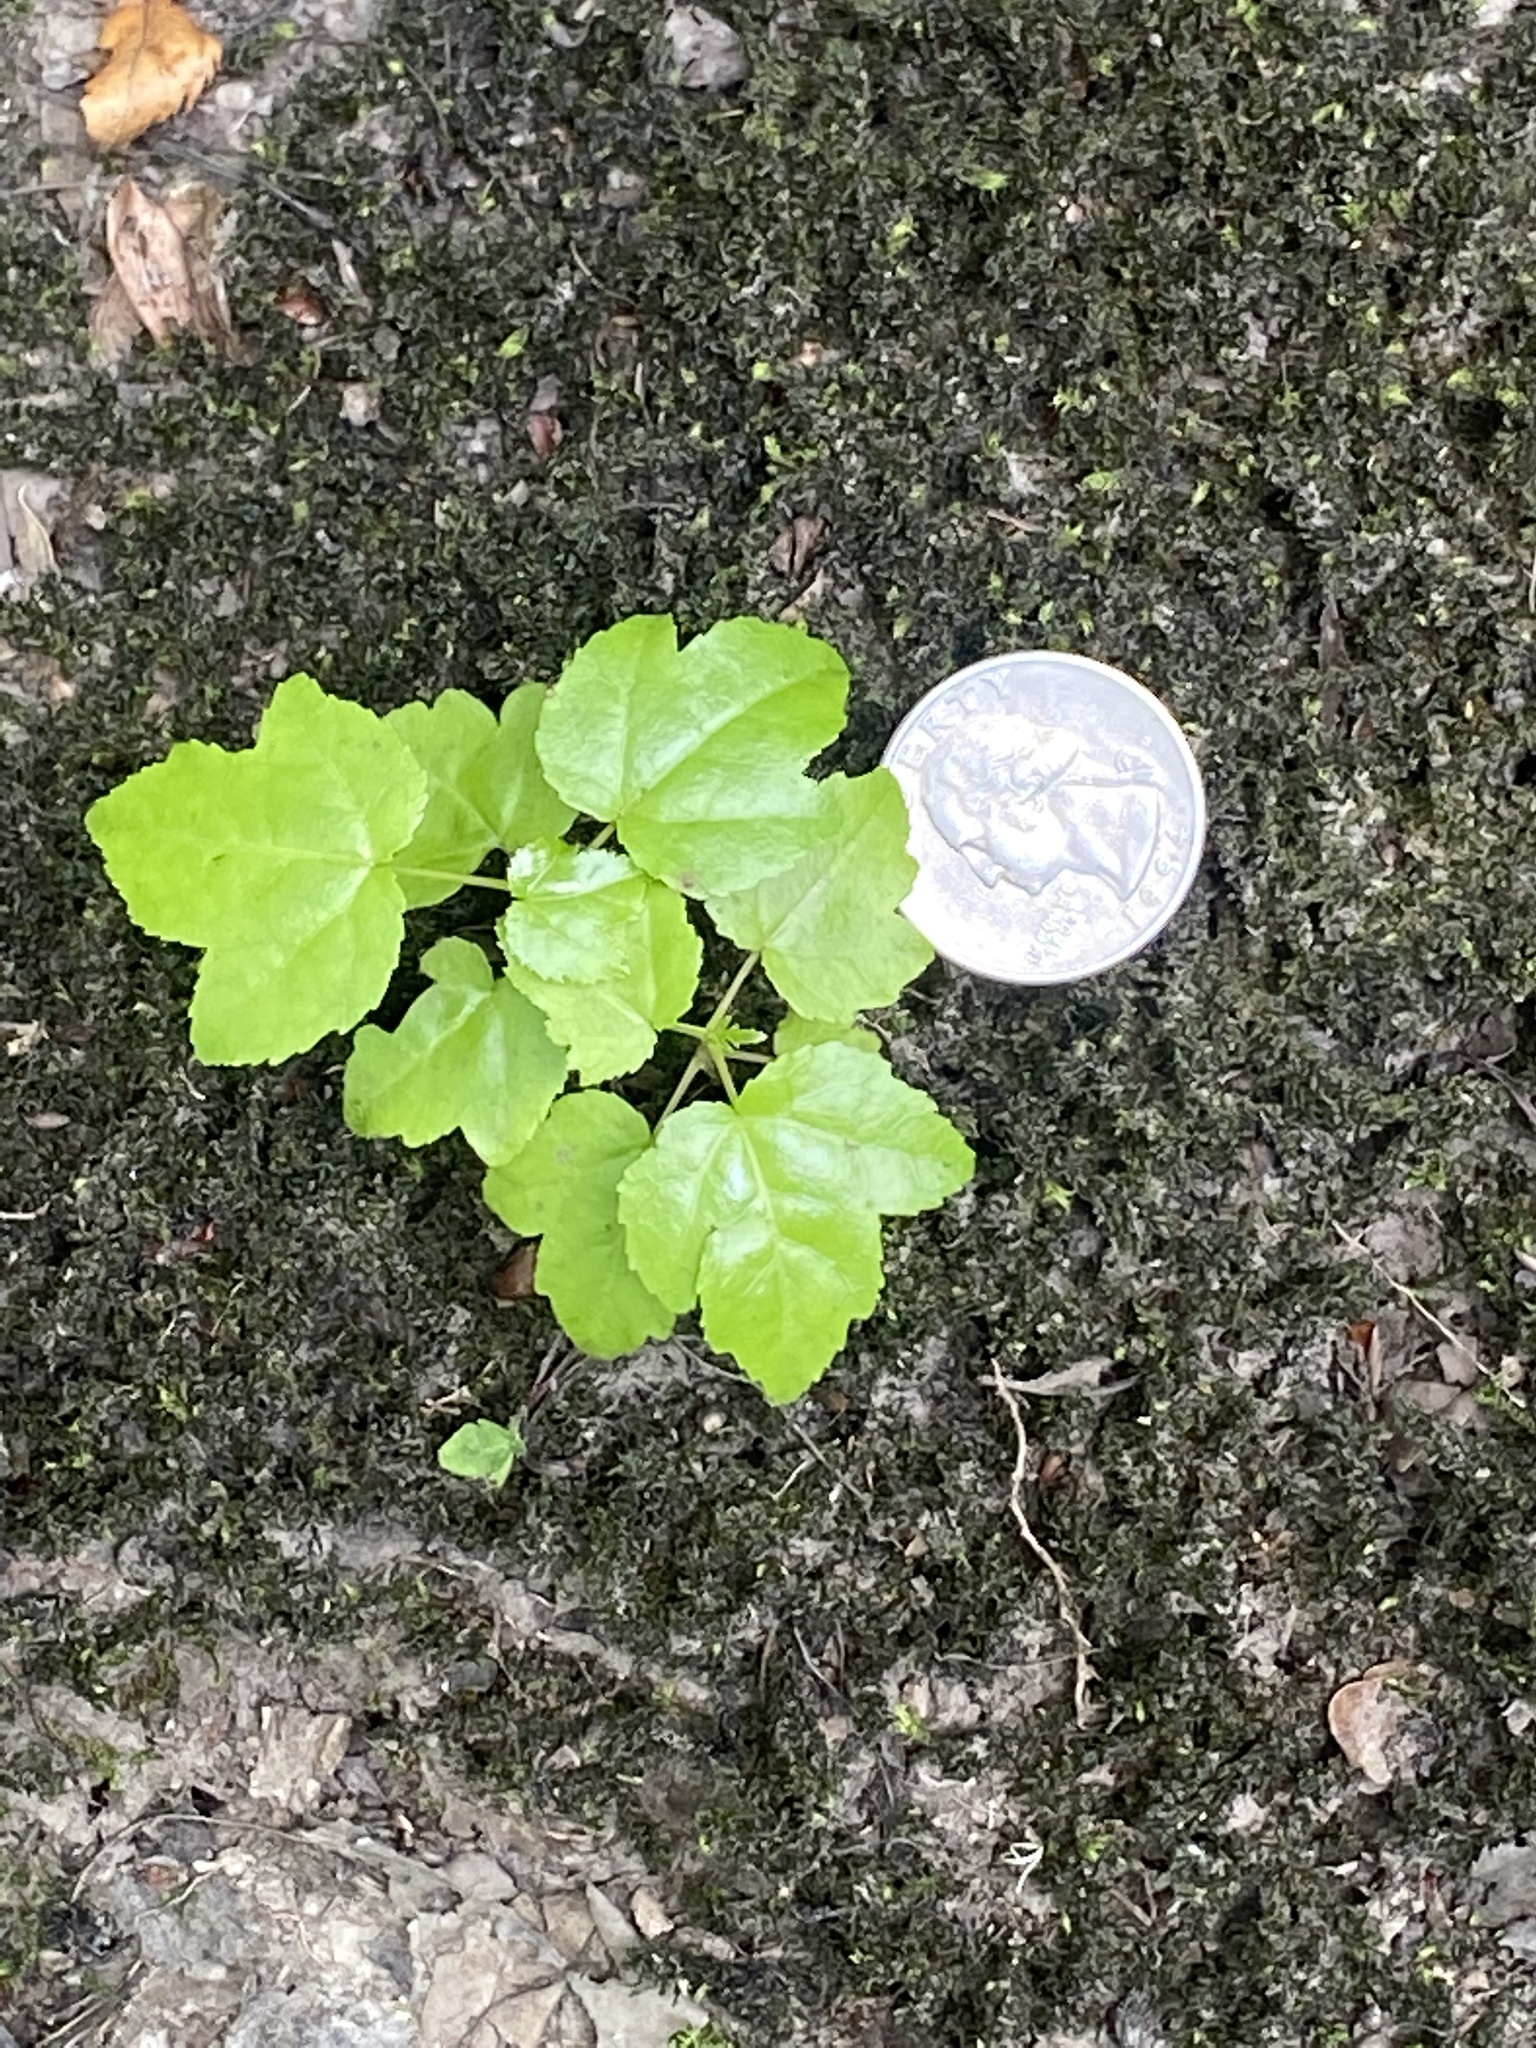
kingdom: Plantae
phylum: Tracheophyta
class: Magnoliopsida
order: Saxifragales
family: Altingiaceae
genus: Liquidambar
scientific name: Liquidambar styraciflua
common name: Sweet gum
